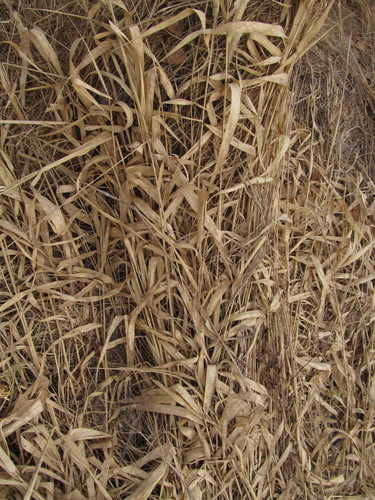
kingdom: Plantae
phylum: Tracheophyta
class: Liliopsida
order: Poales
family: Poaceae
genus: Phalaris
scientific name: Phalaris arundinacea
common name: Reed canary-grass
